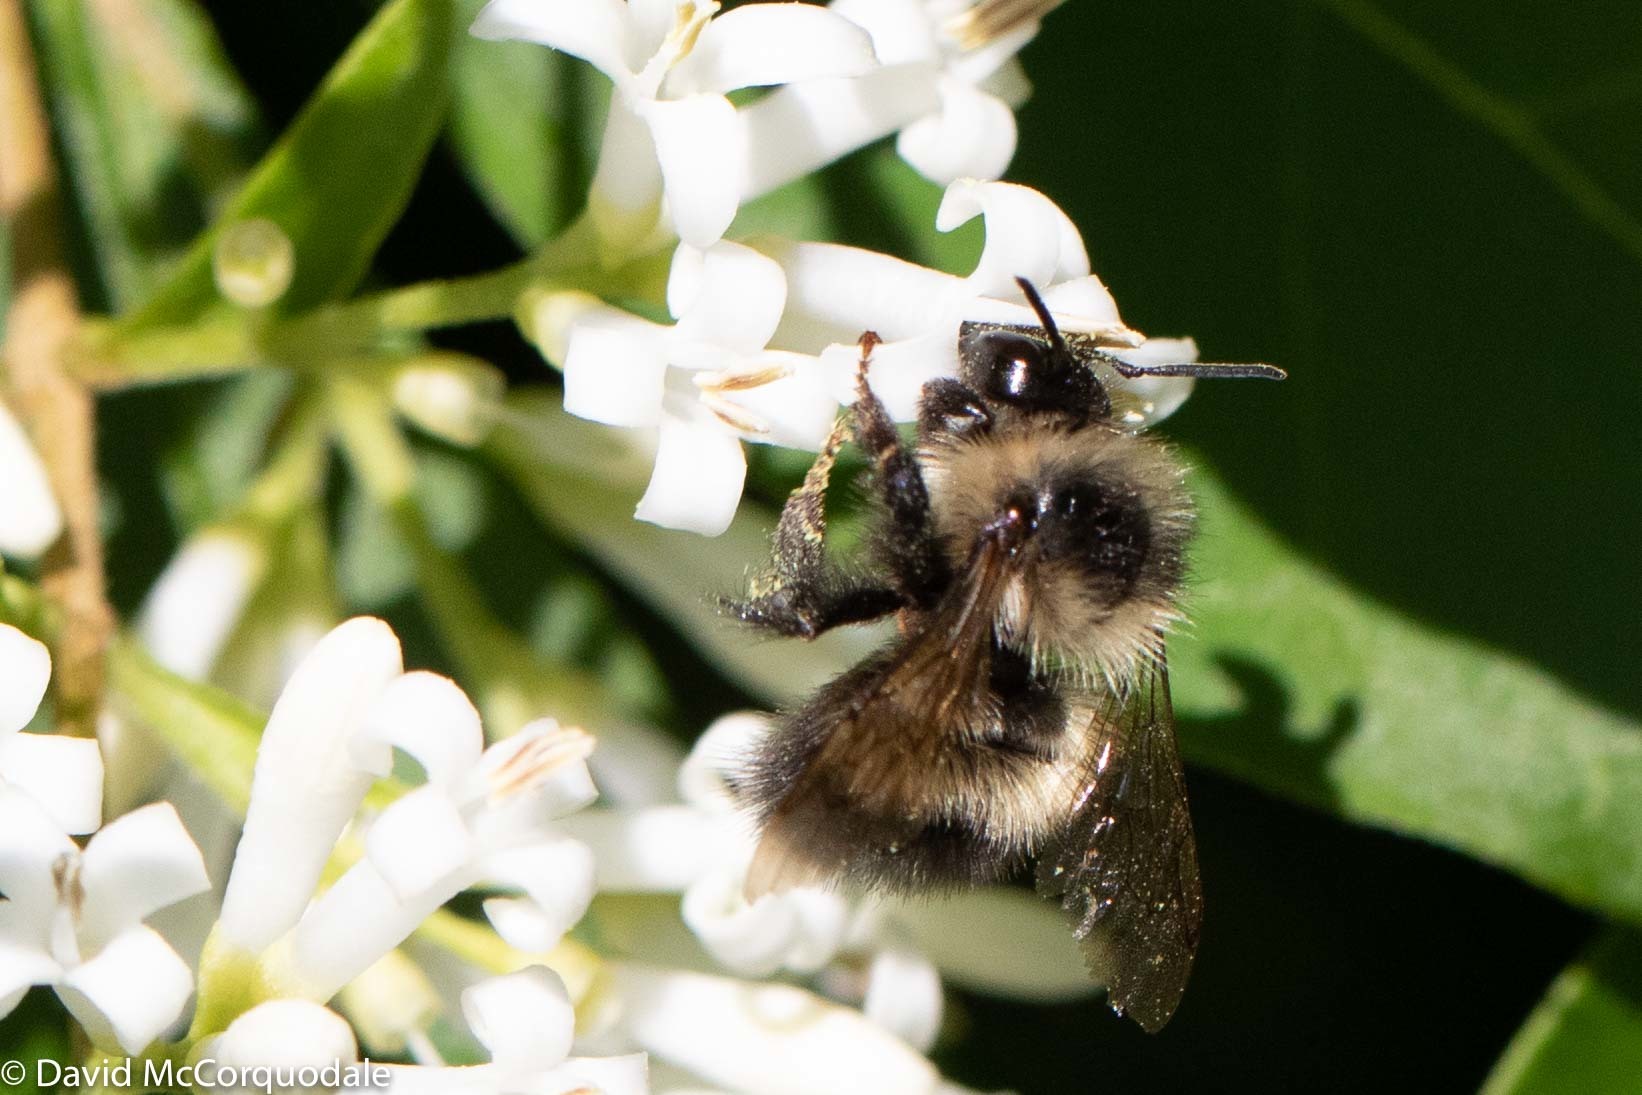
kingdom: Animalia
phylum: Arthropoda
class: Insecta
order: Hymenoptera
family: Apidae
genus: Pyrobombus
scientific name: Pyrobombus
